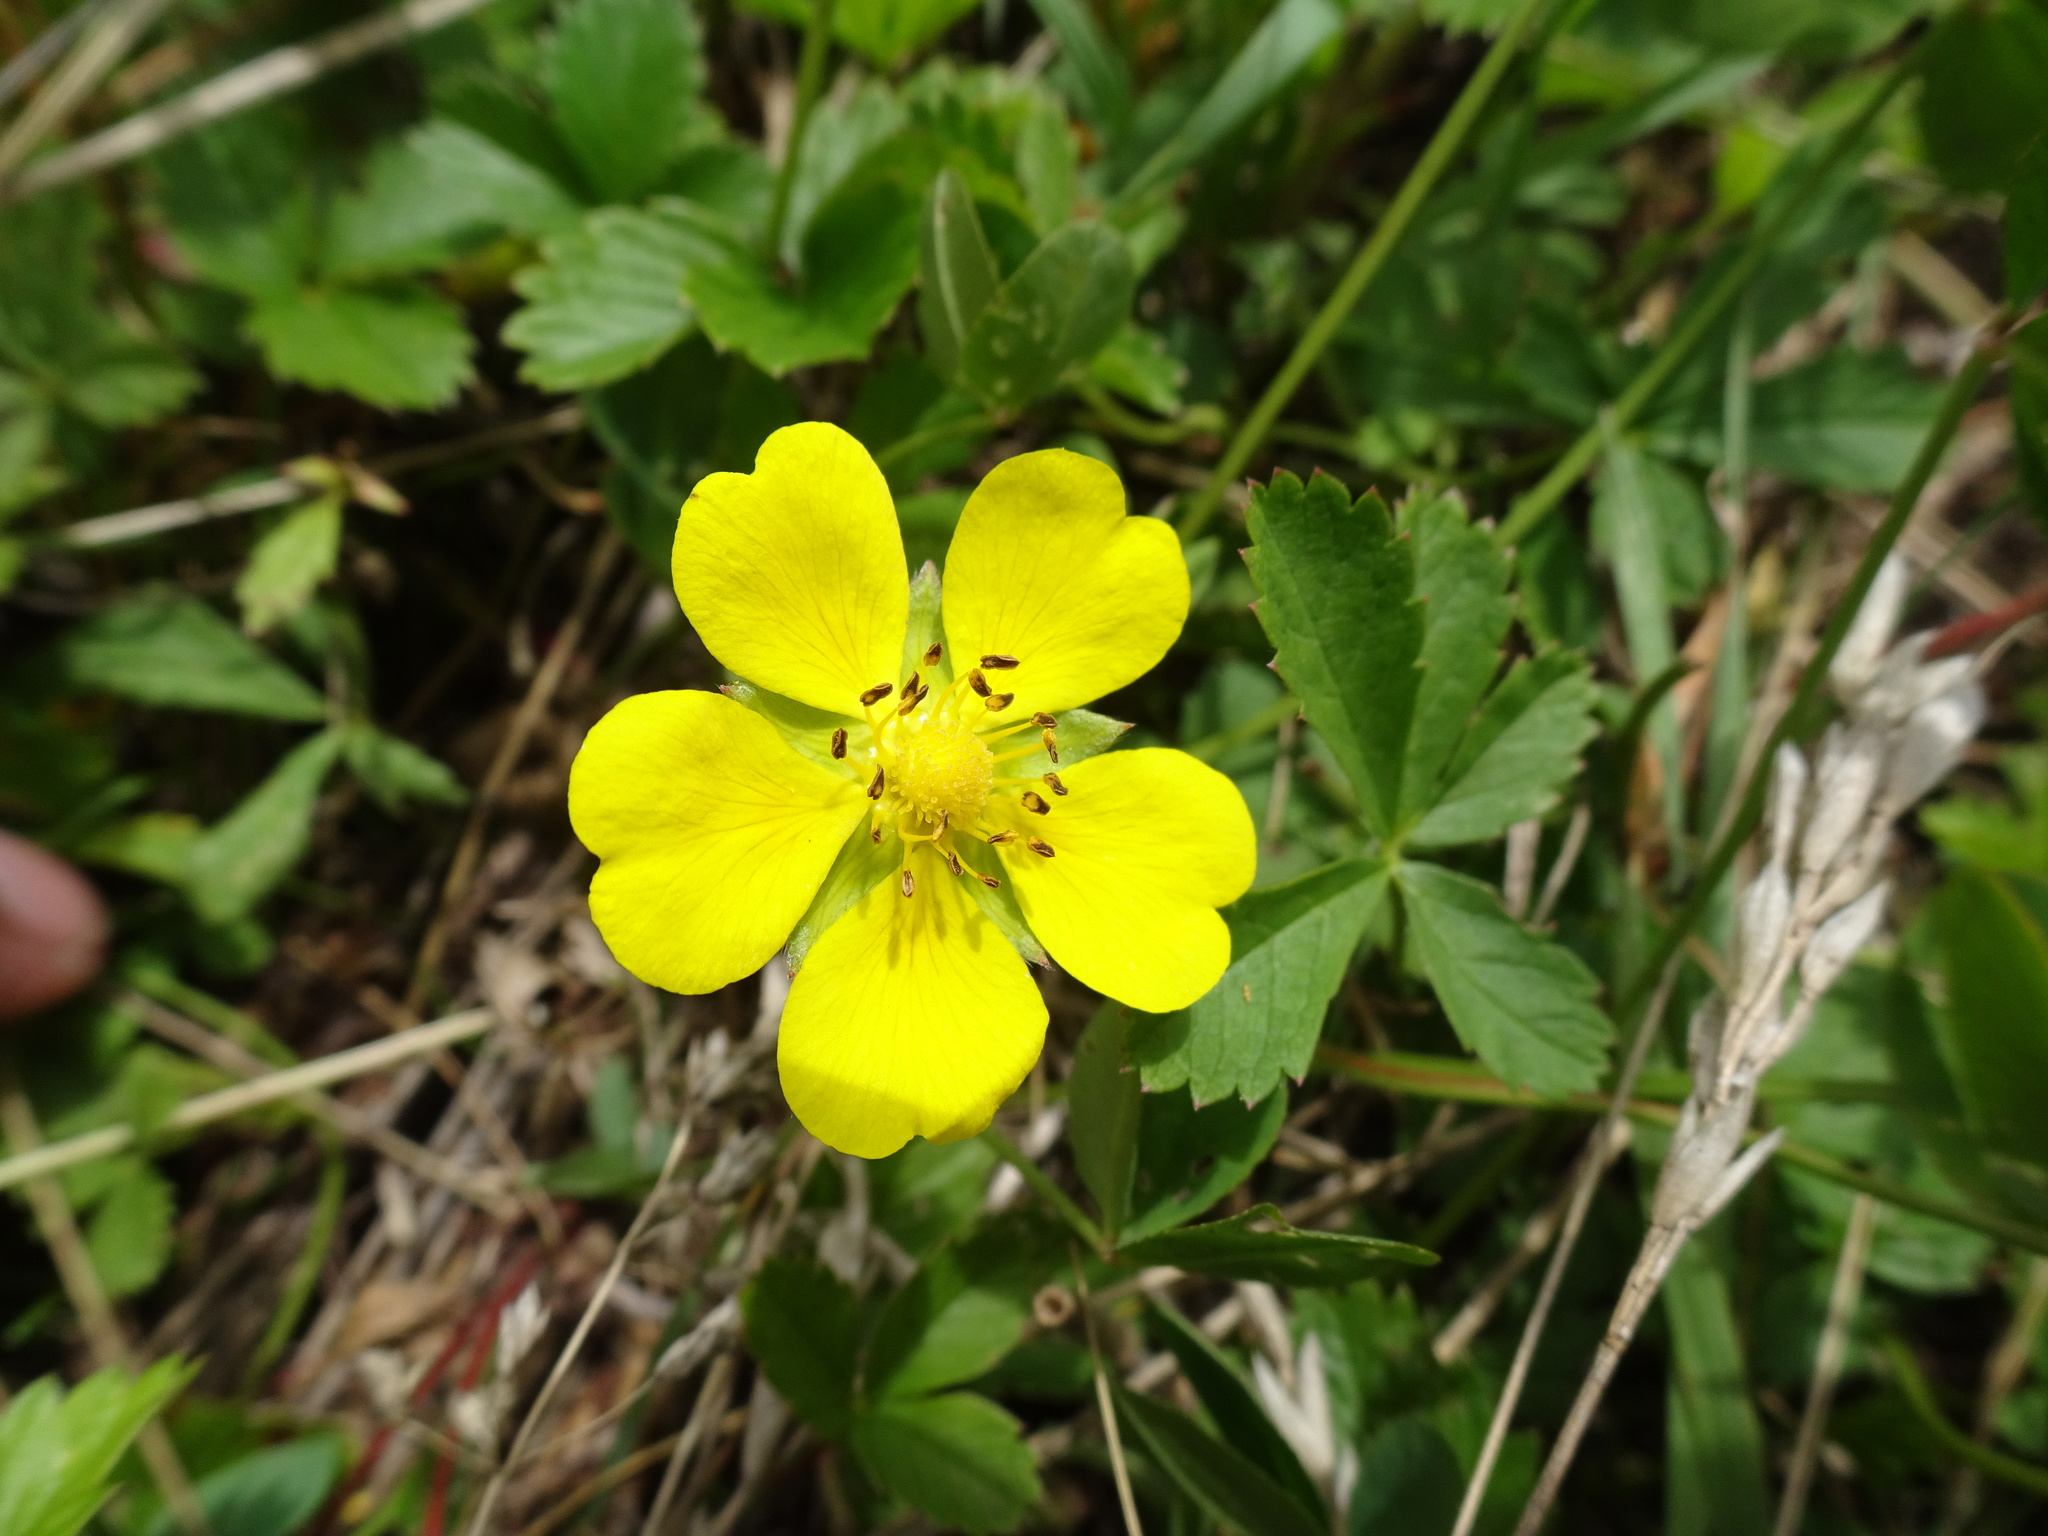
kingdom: Plantae
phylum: Tracheophyta
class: Magnoliopsida
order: Rosales
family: Rosaceae
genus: Potentilla
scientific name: Potentilla reptans
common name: Creeping cinquefoil
